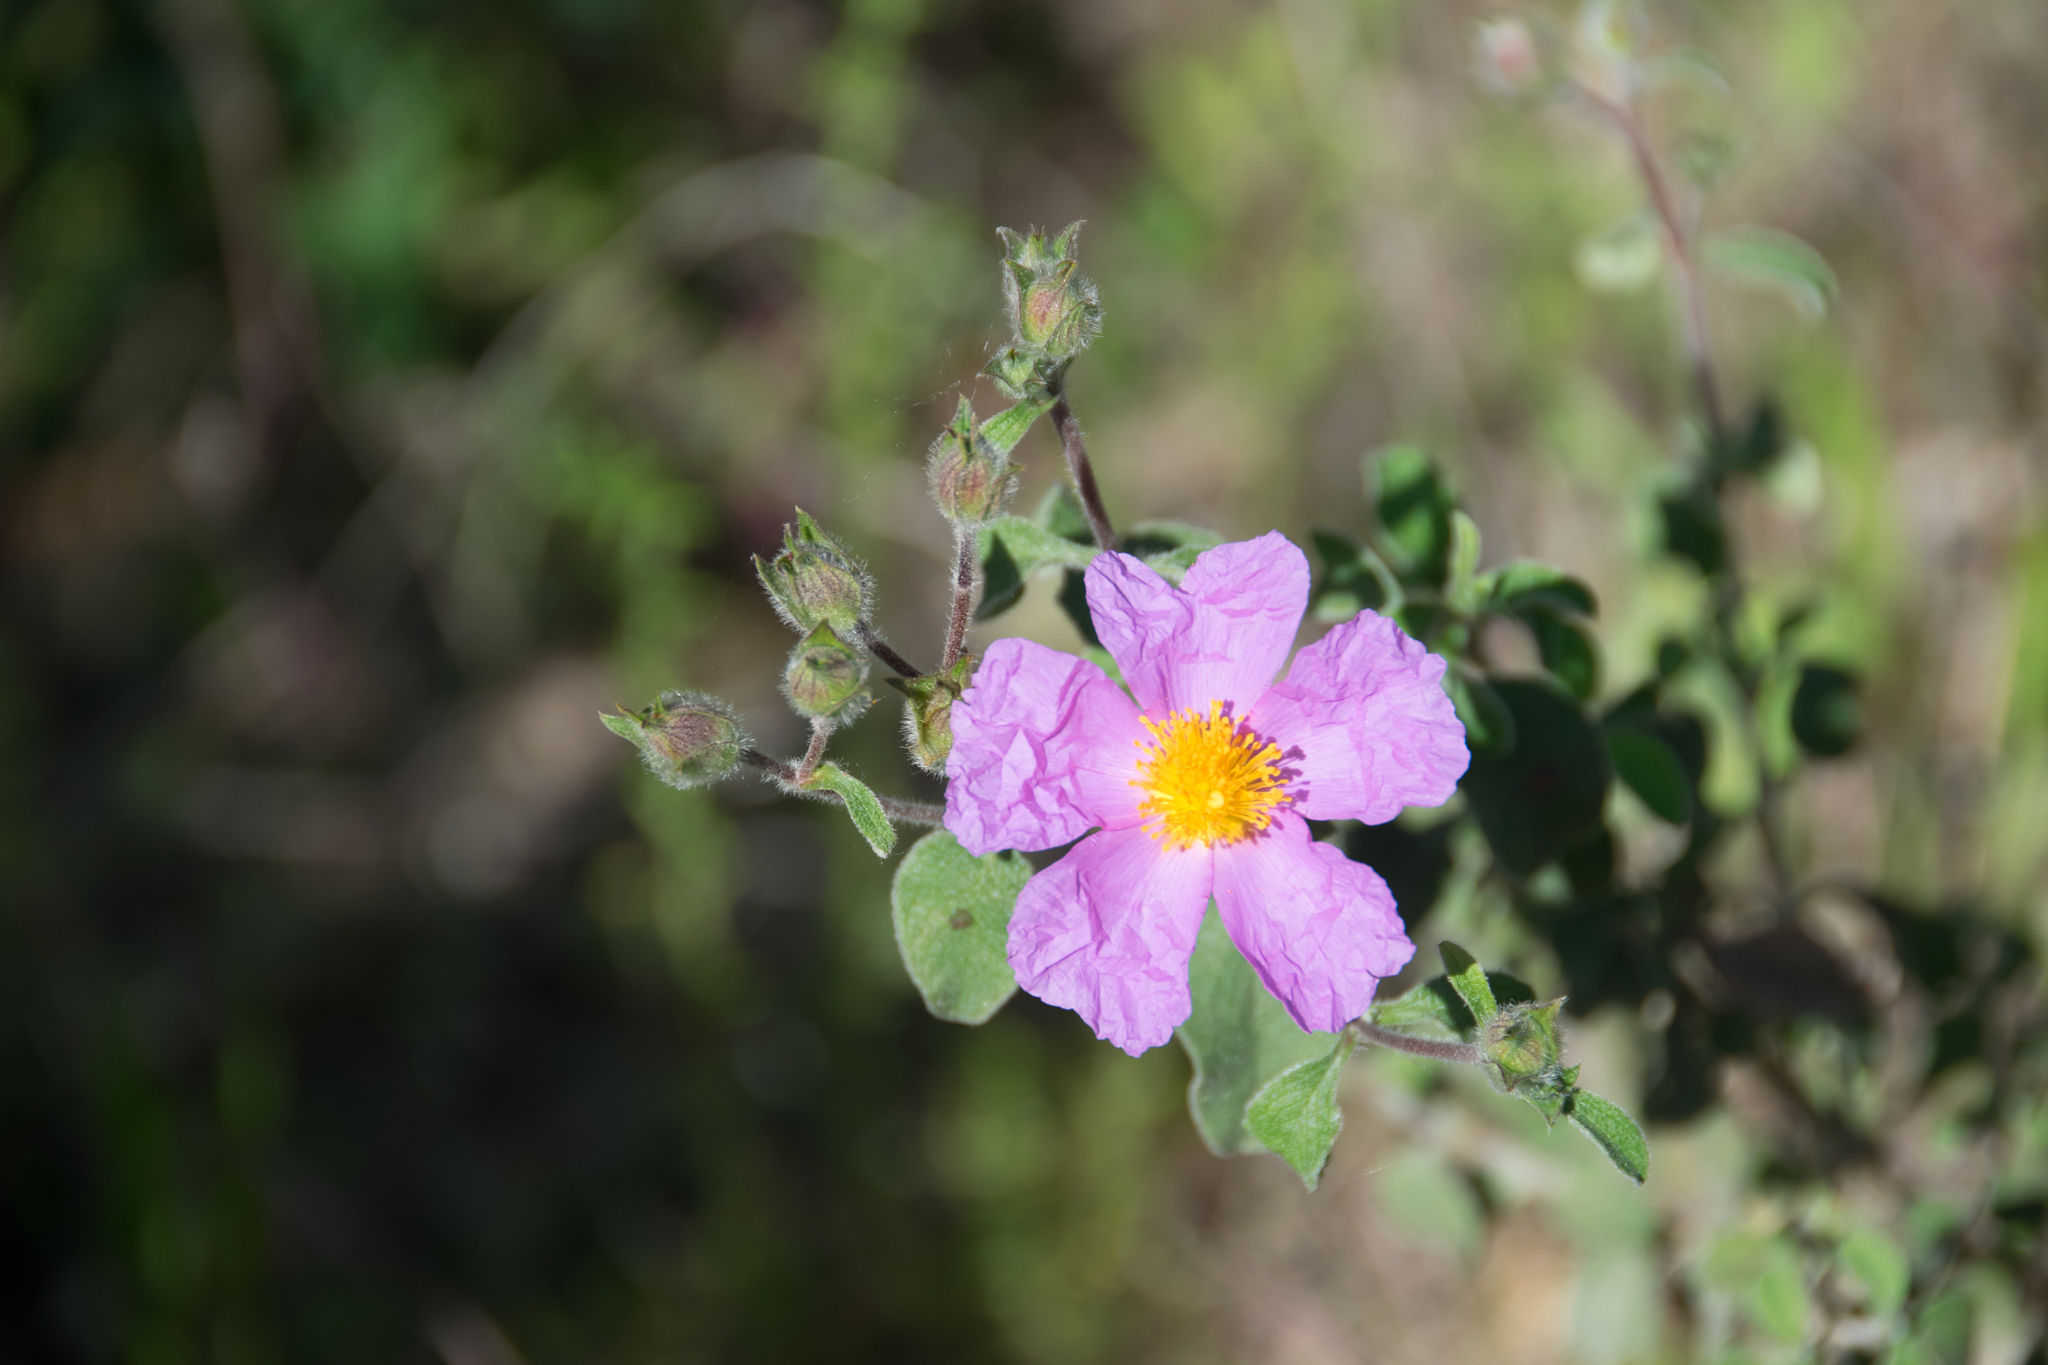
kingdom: Plantae
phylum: Tracheophyta
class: Magnoliopsida
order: Malvales
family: Cistaceae
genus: Cistus
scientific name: Cistus creticus
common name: Cretan rockrose
